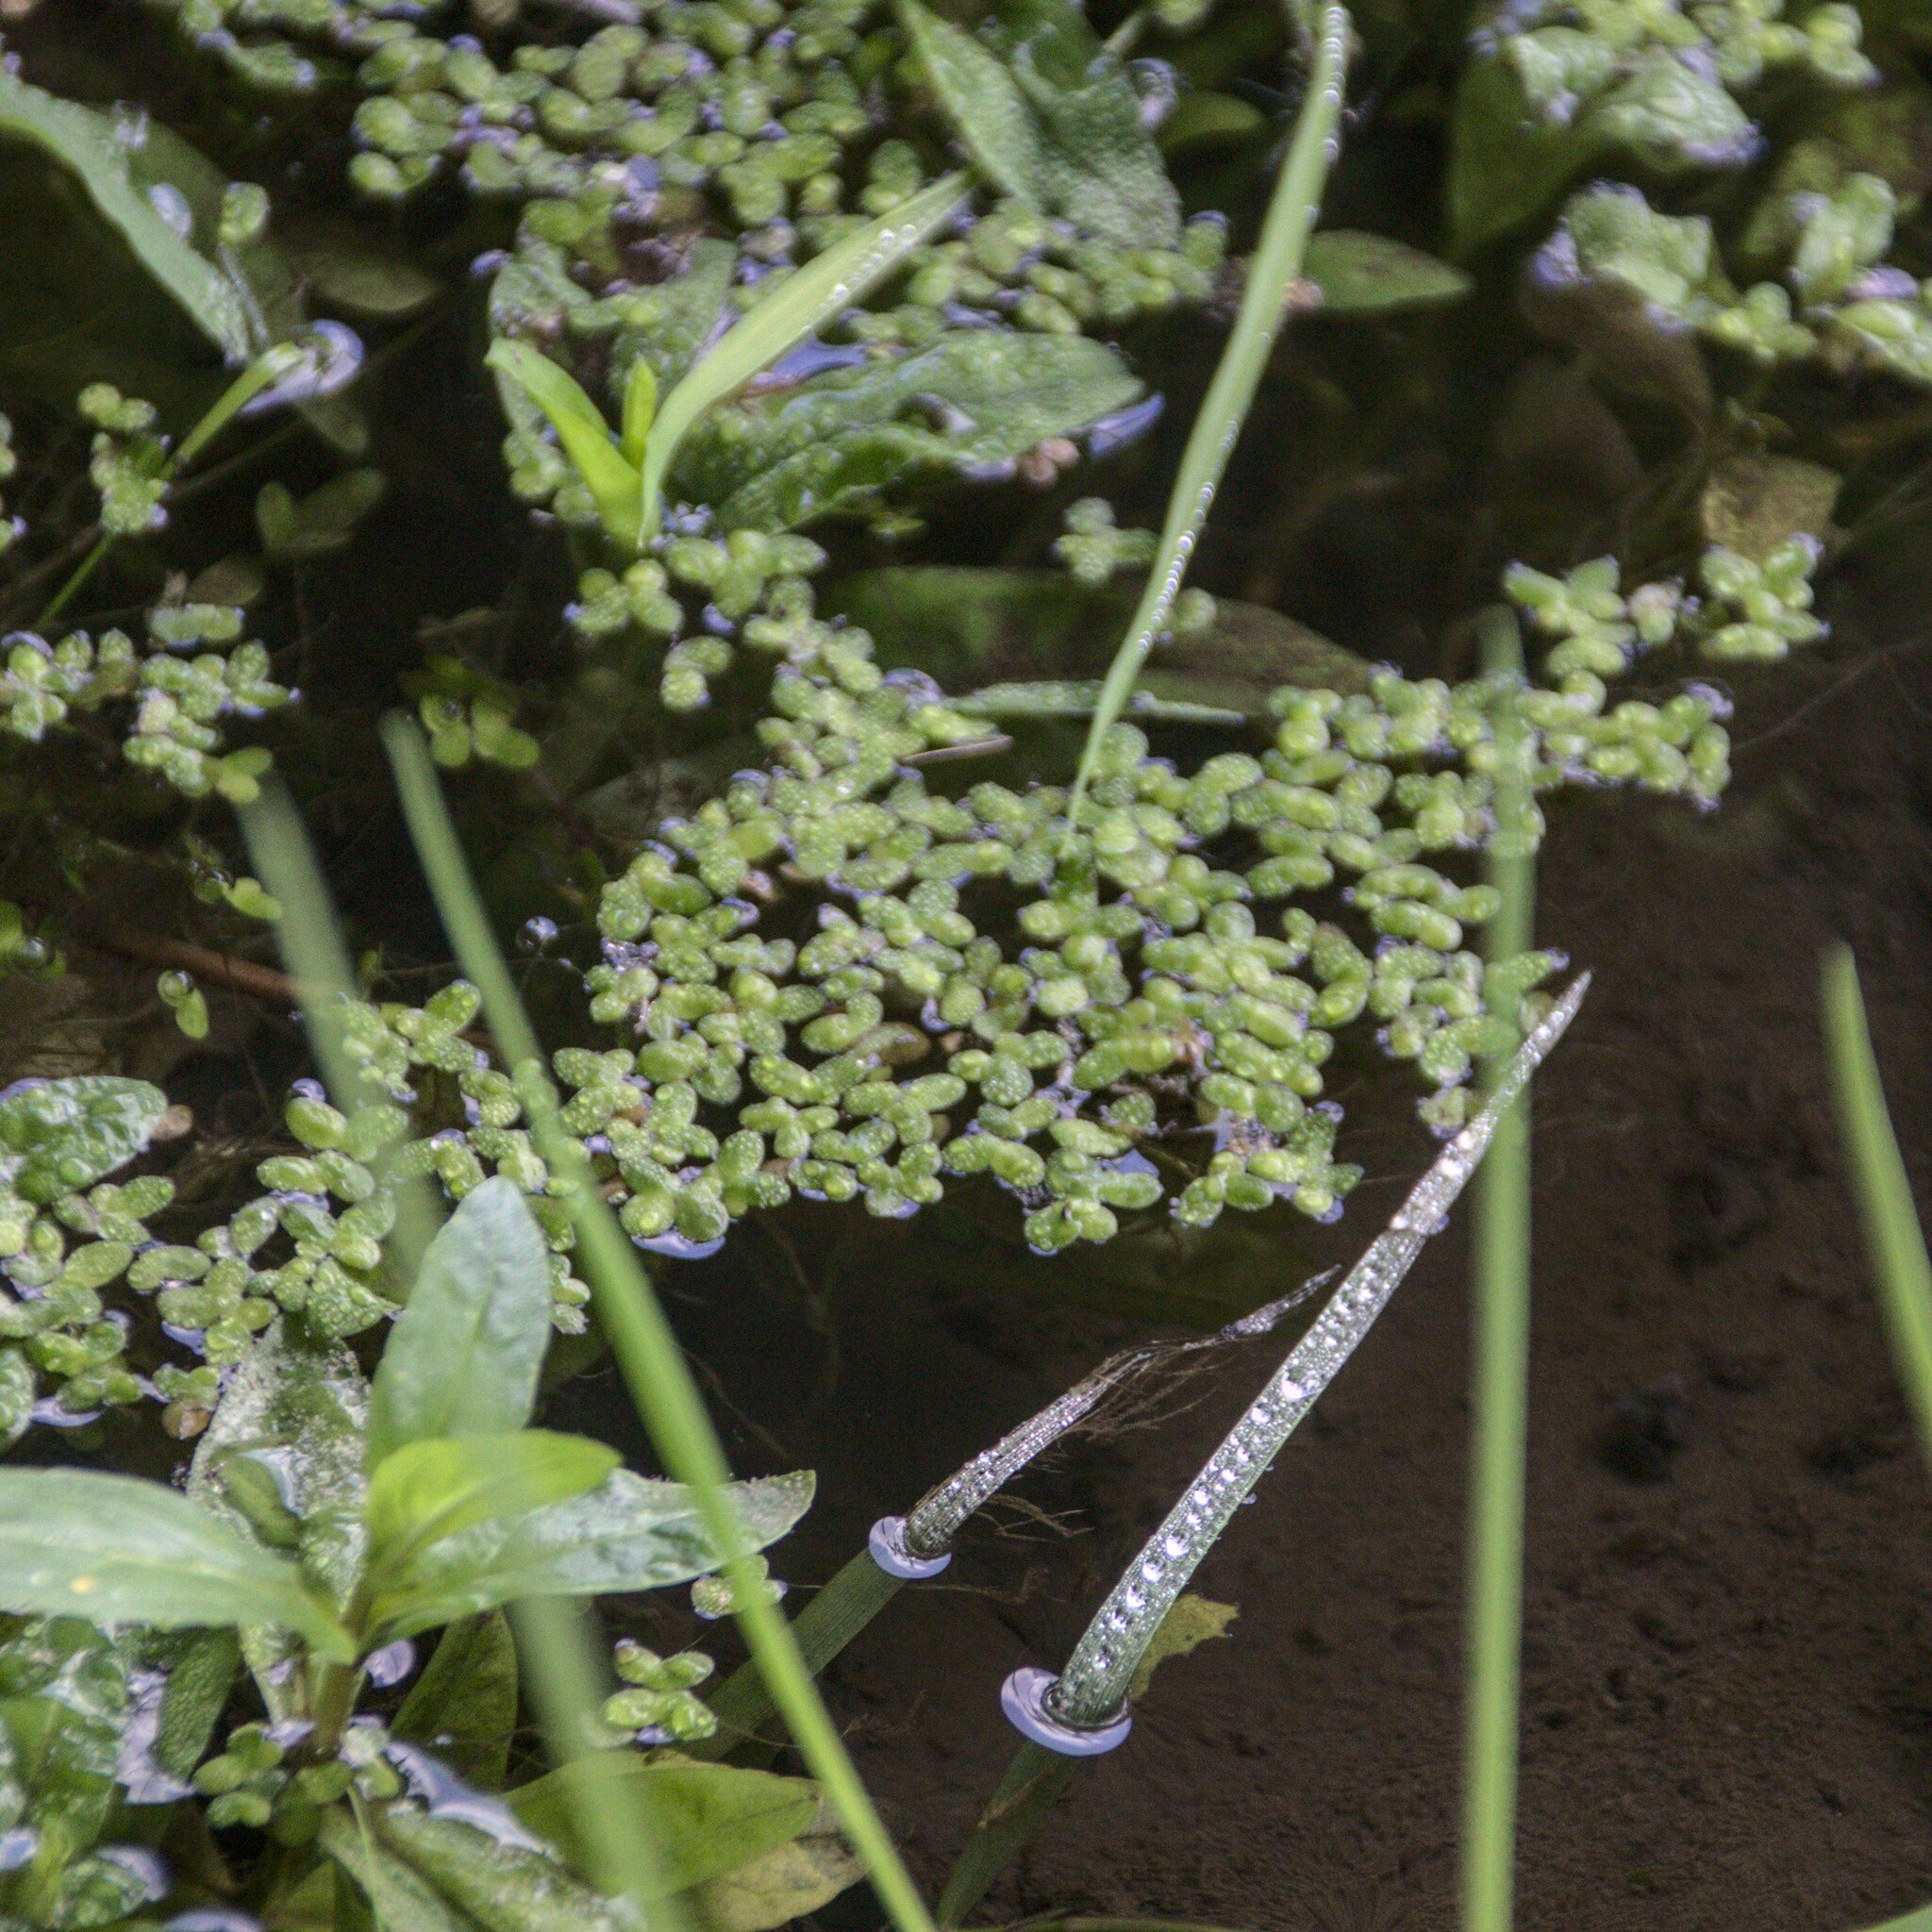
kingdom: Plantae
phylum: Tracheophyta
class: Liliopsida
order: Alismatales
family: Araceae
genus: Lemna
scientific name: Lemna minor
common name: Common duckweed
